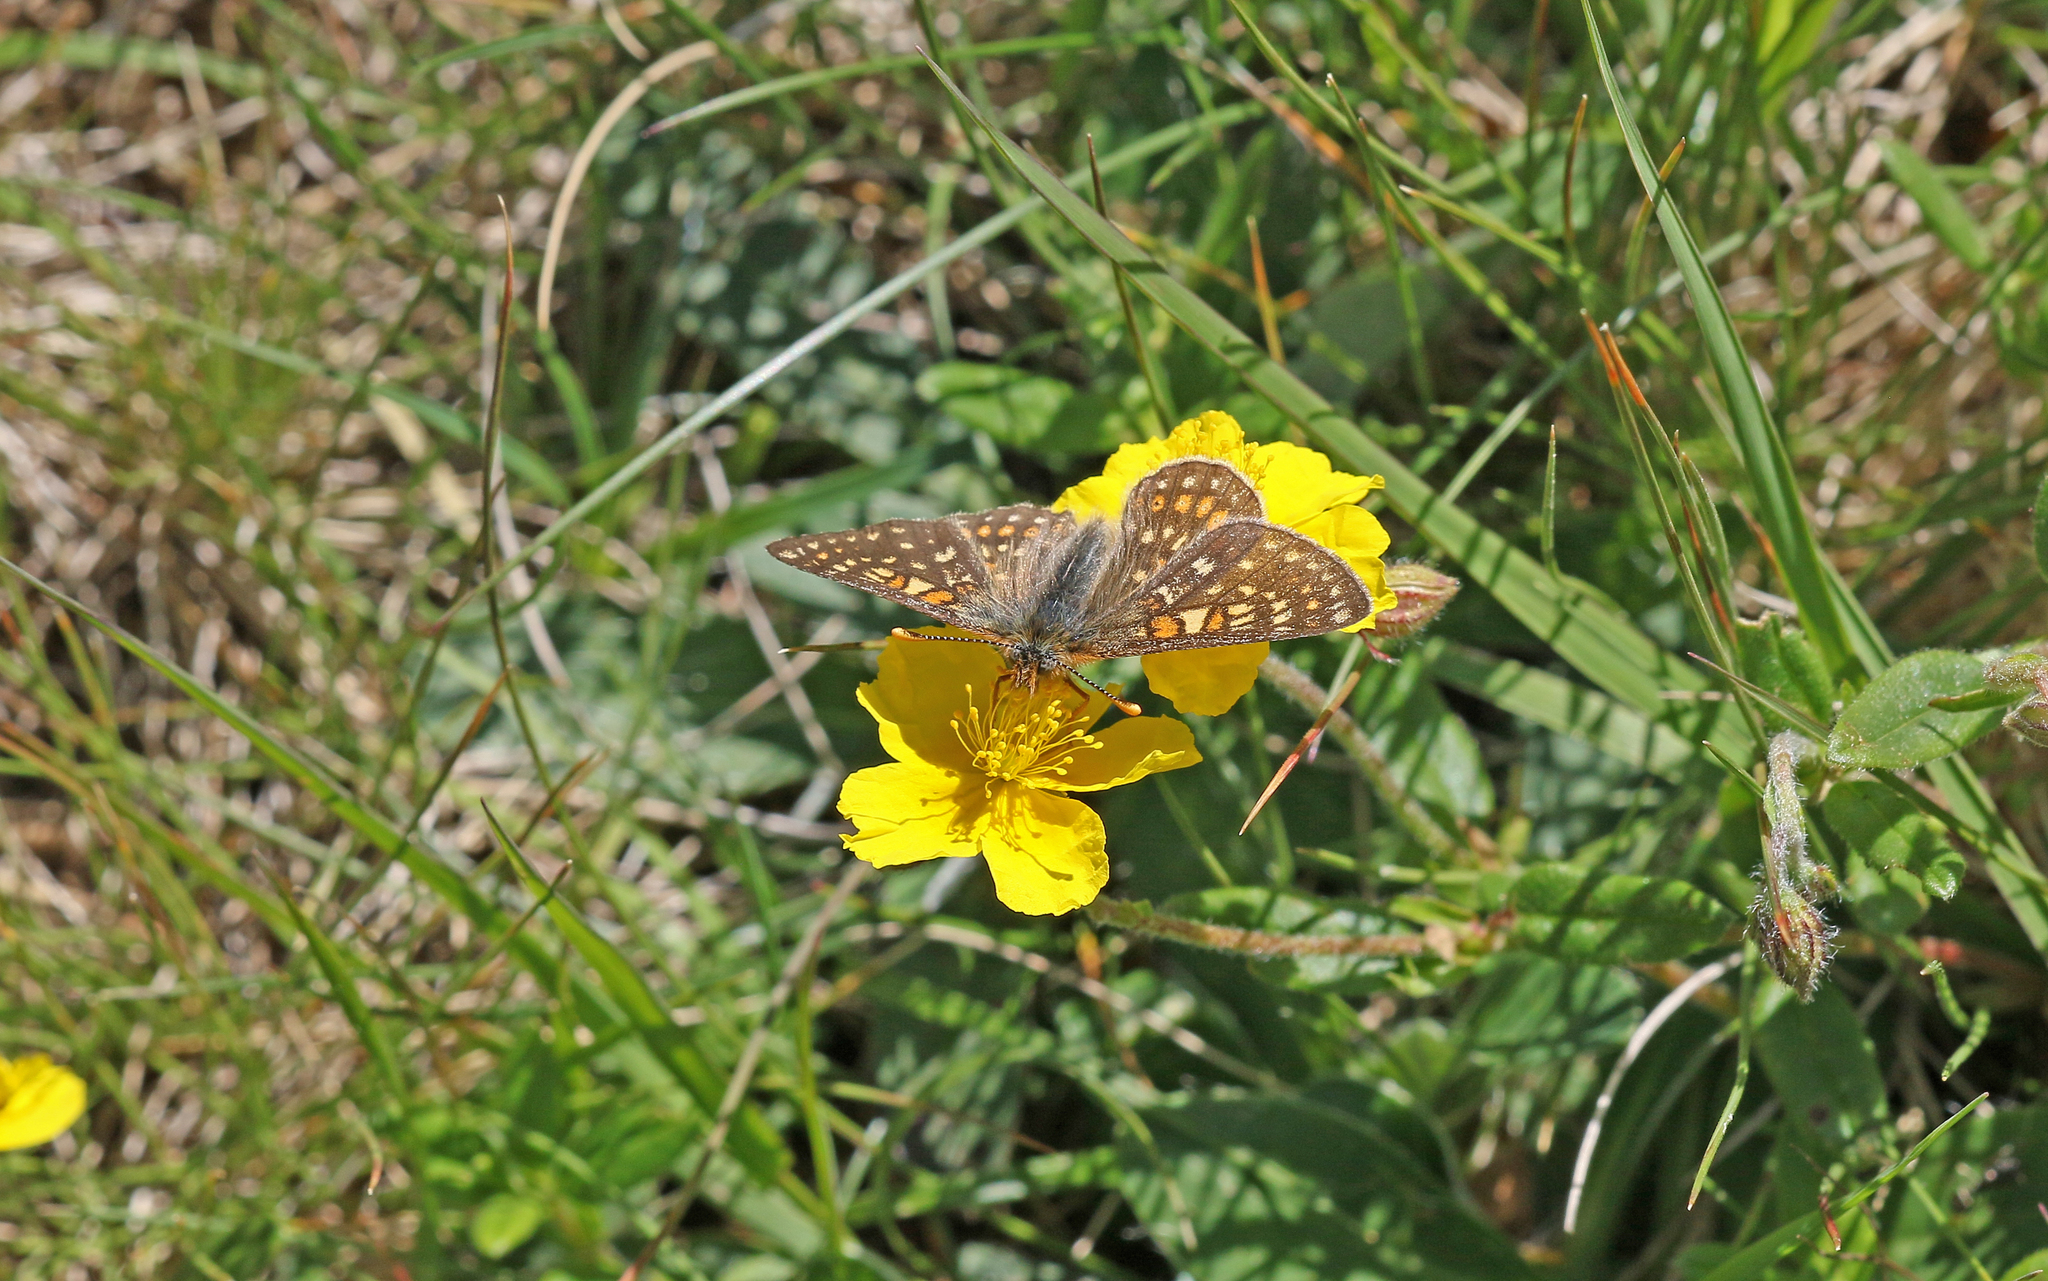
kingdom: Animalia
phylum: Arthropoda
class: Insecta
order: Lepidoptera
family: Nymphalidae
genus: Euphydryas
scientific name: Euphydryas aurinia
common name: Marsh fritillary
